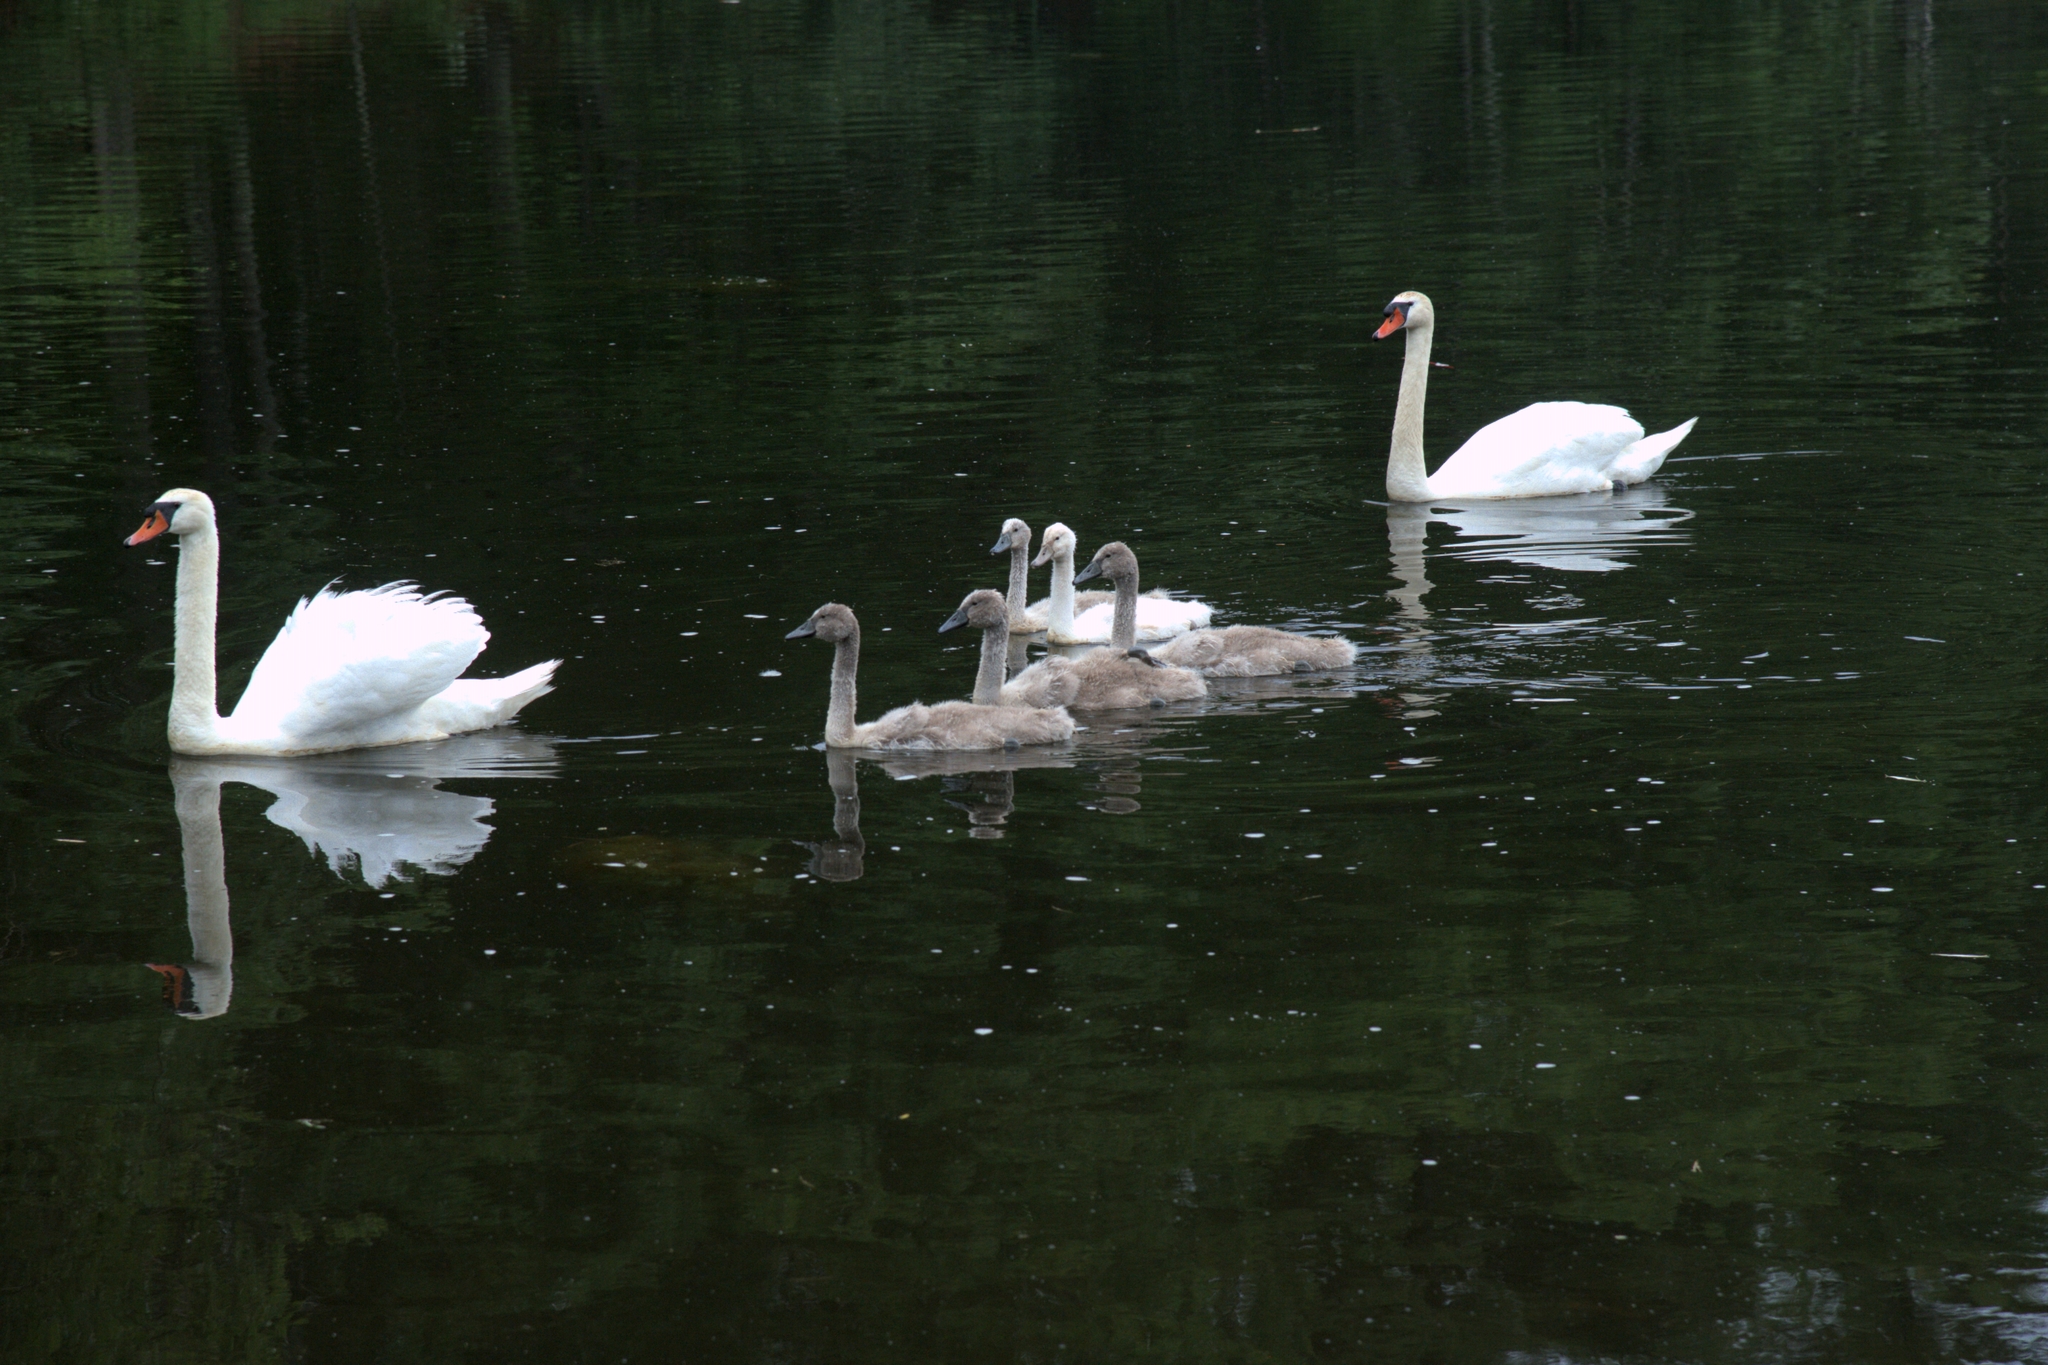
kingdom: Animalia
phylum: Chordata
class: Aves
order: Anseriformes
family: Anatidae
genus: Cygnus
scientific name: Cygnus olor
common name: Mute swan
